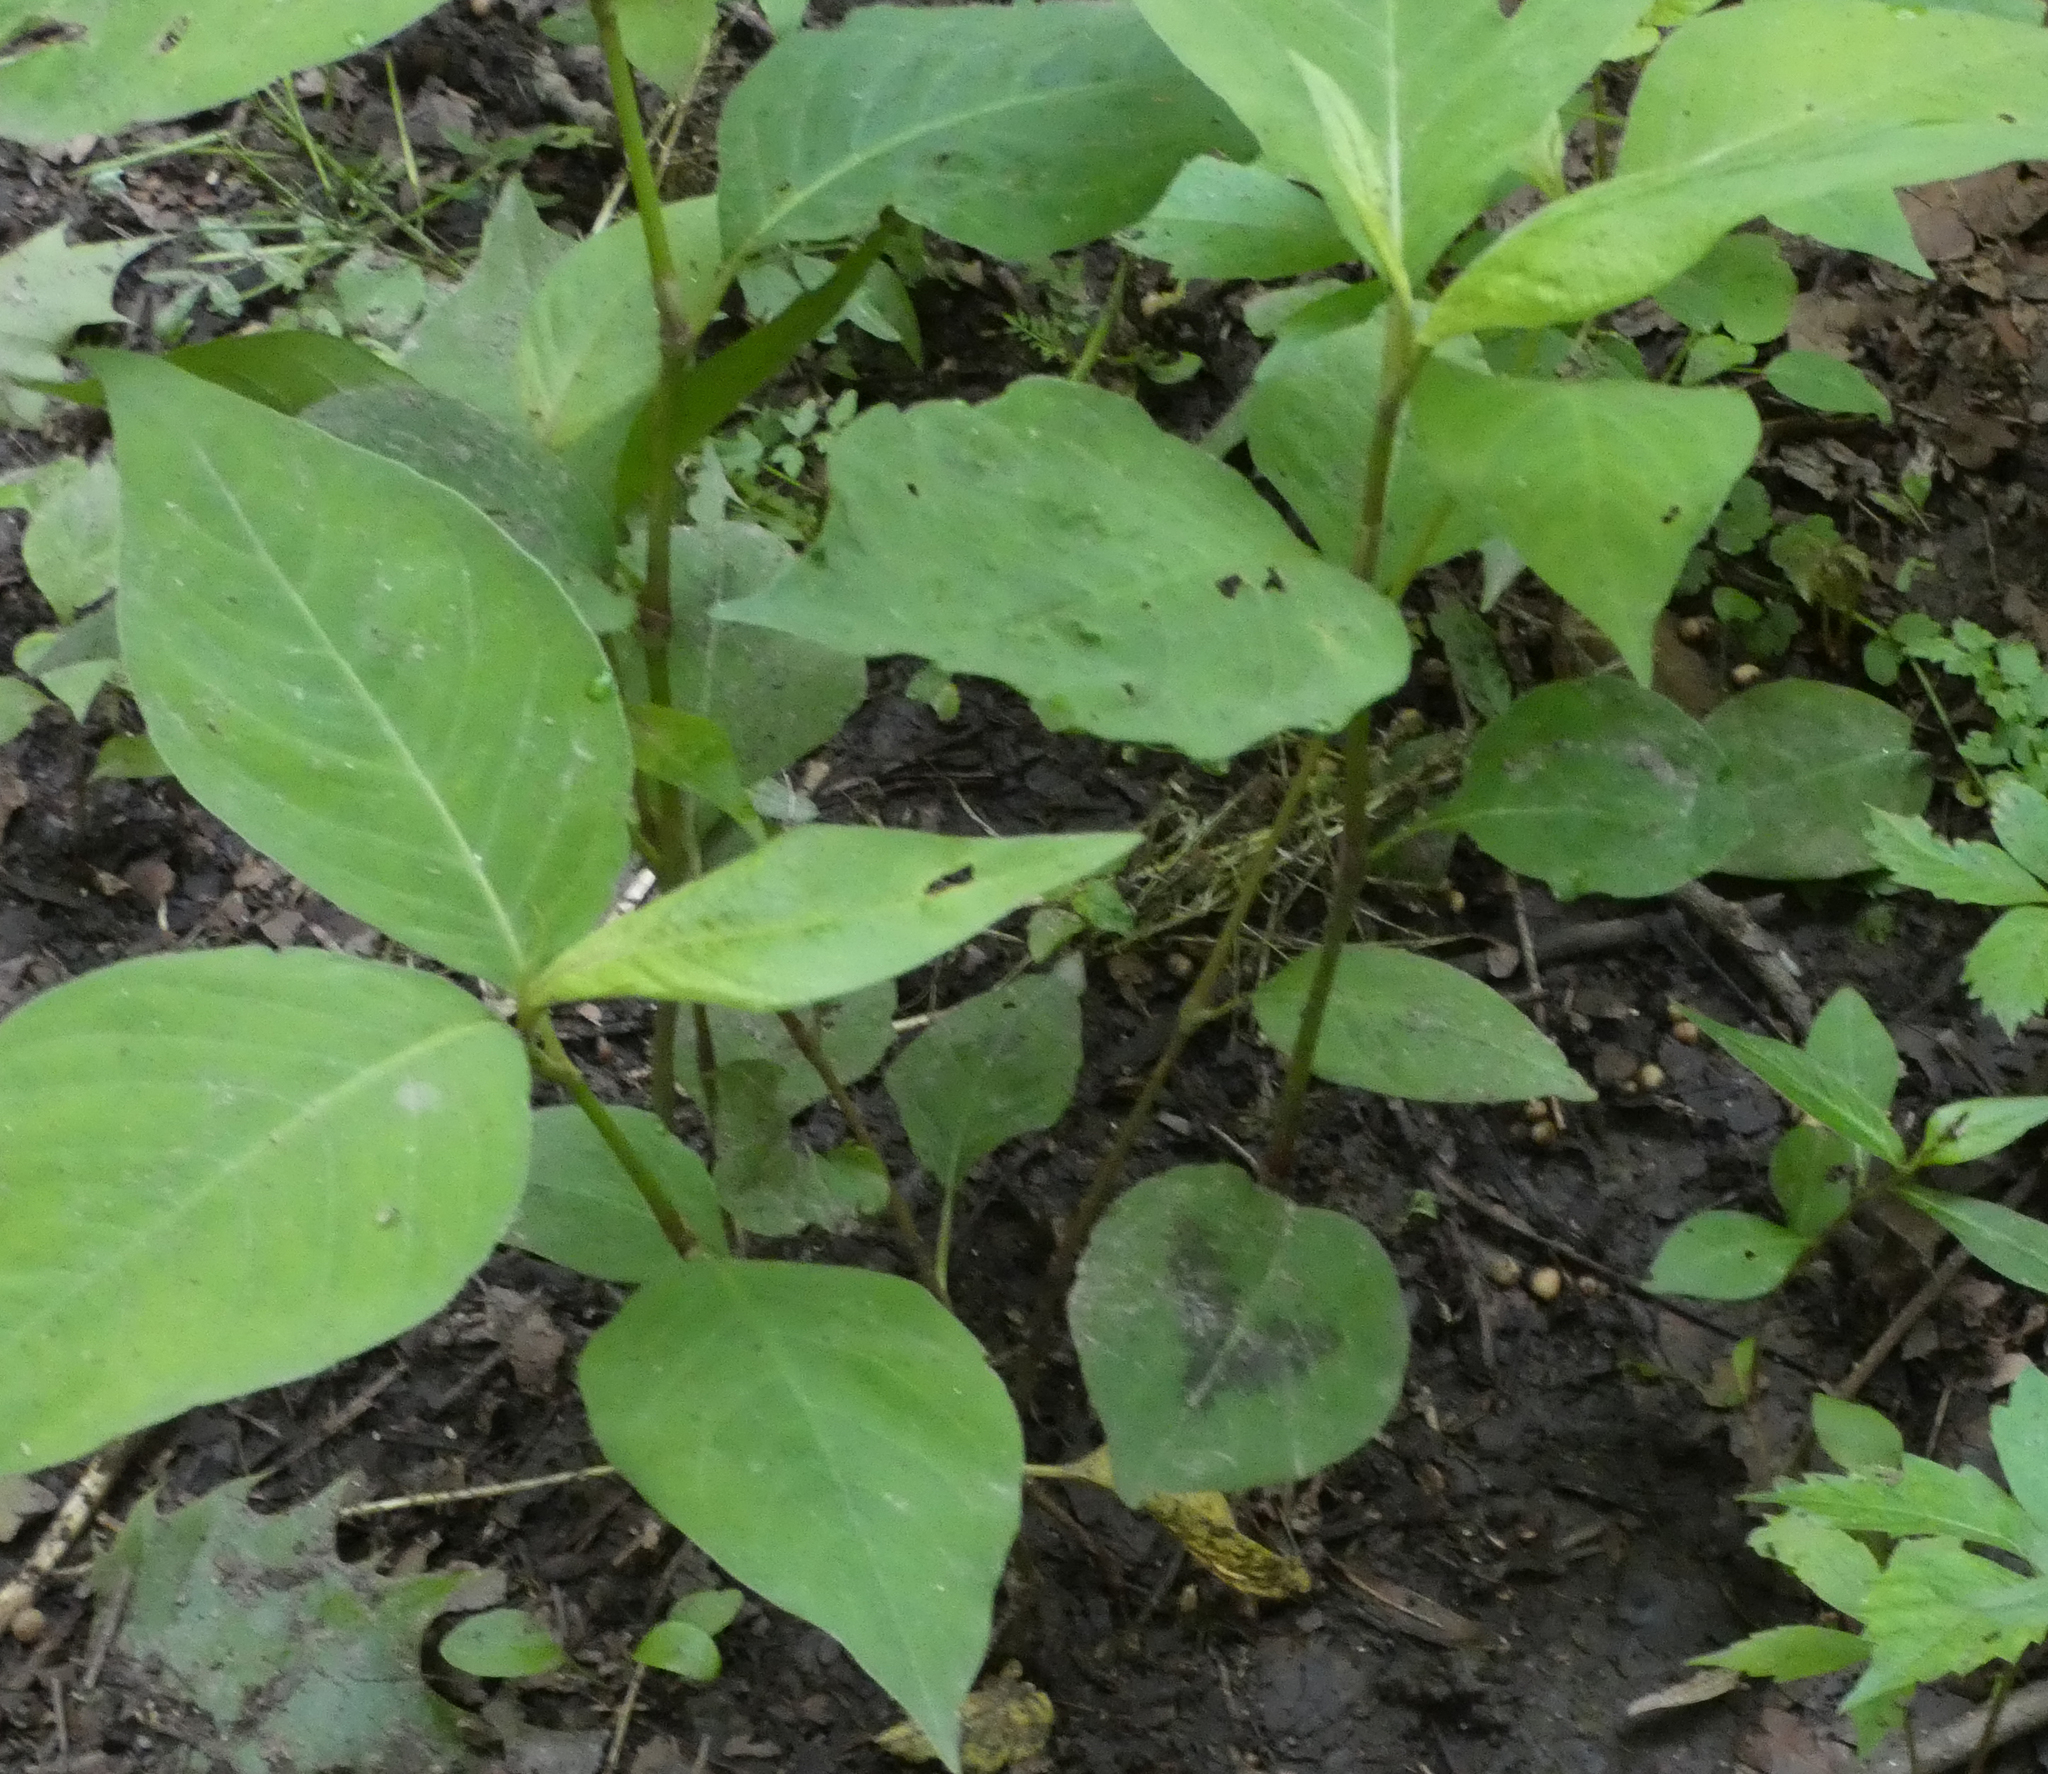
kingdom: Plantae
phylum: Tracheophyta
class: Magnoliopsida
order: Caryophyllales
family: Polygonaceae
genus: Persicaria
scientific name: Persicaria virginiana
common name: Jumpseed
